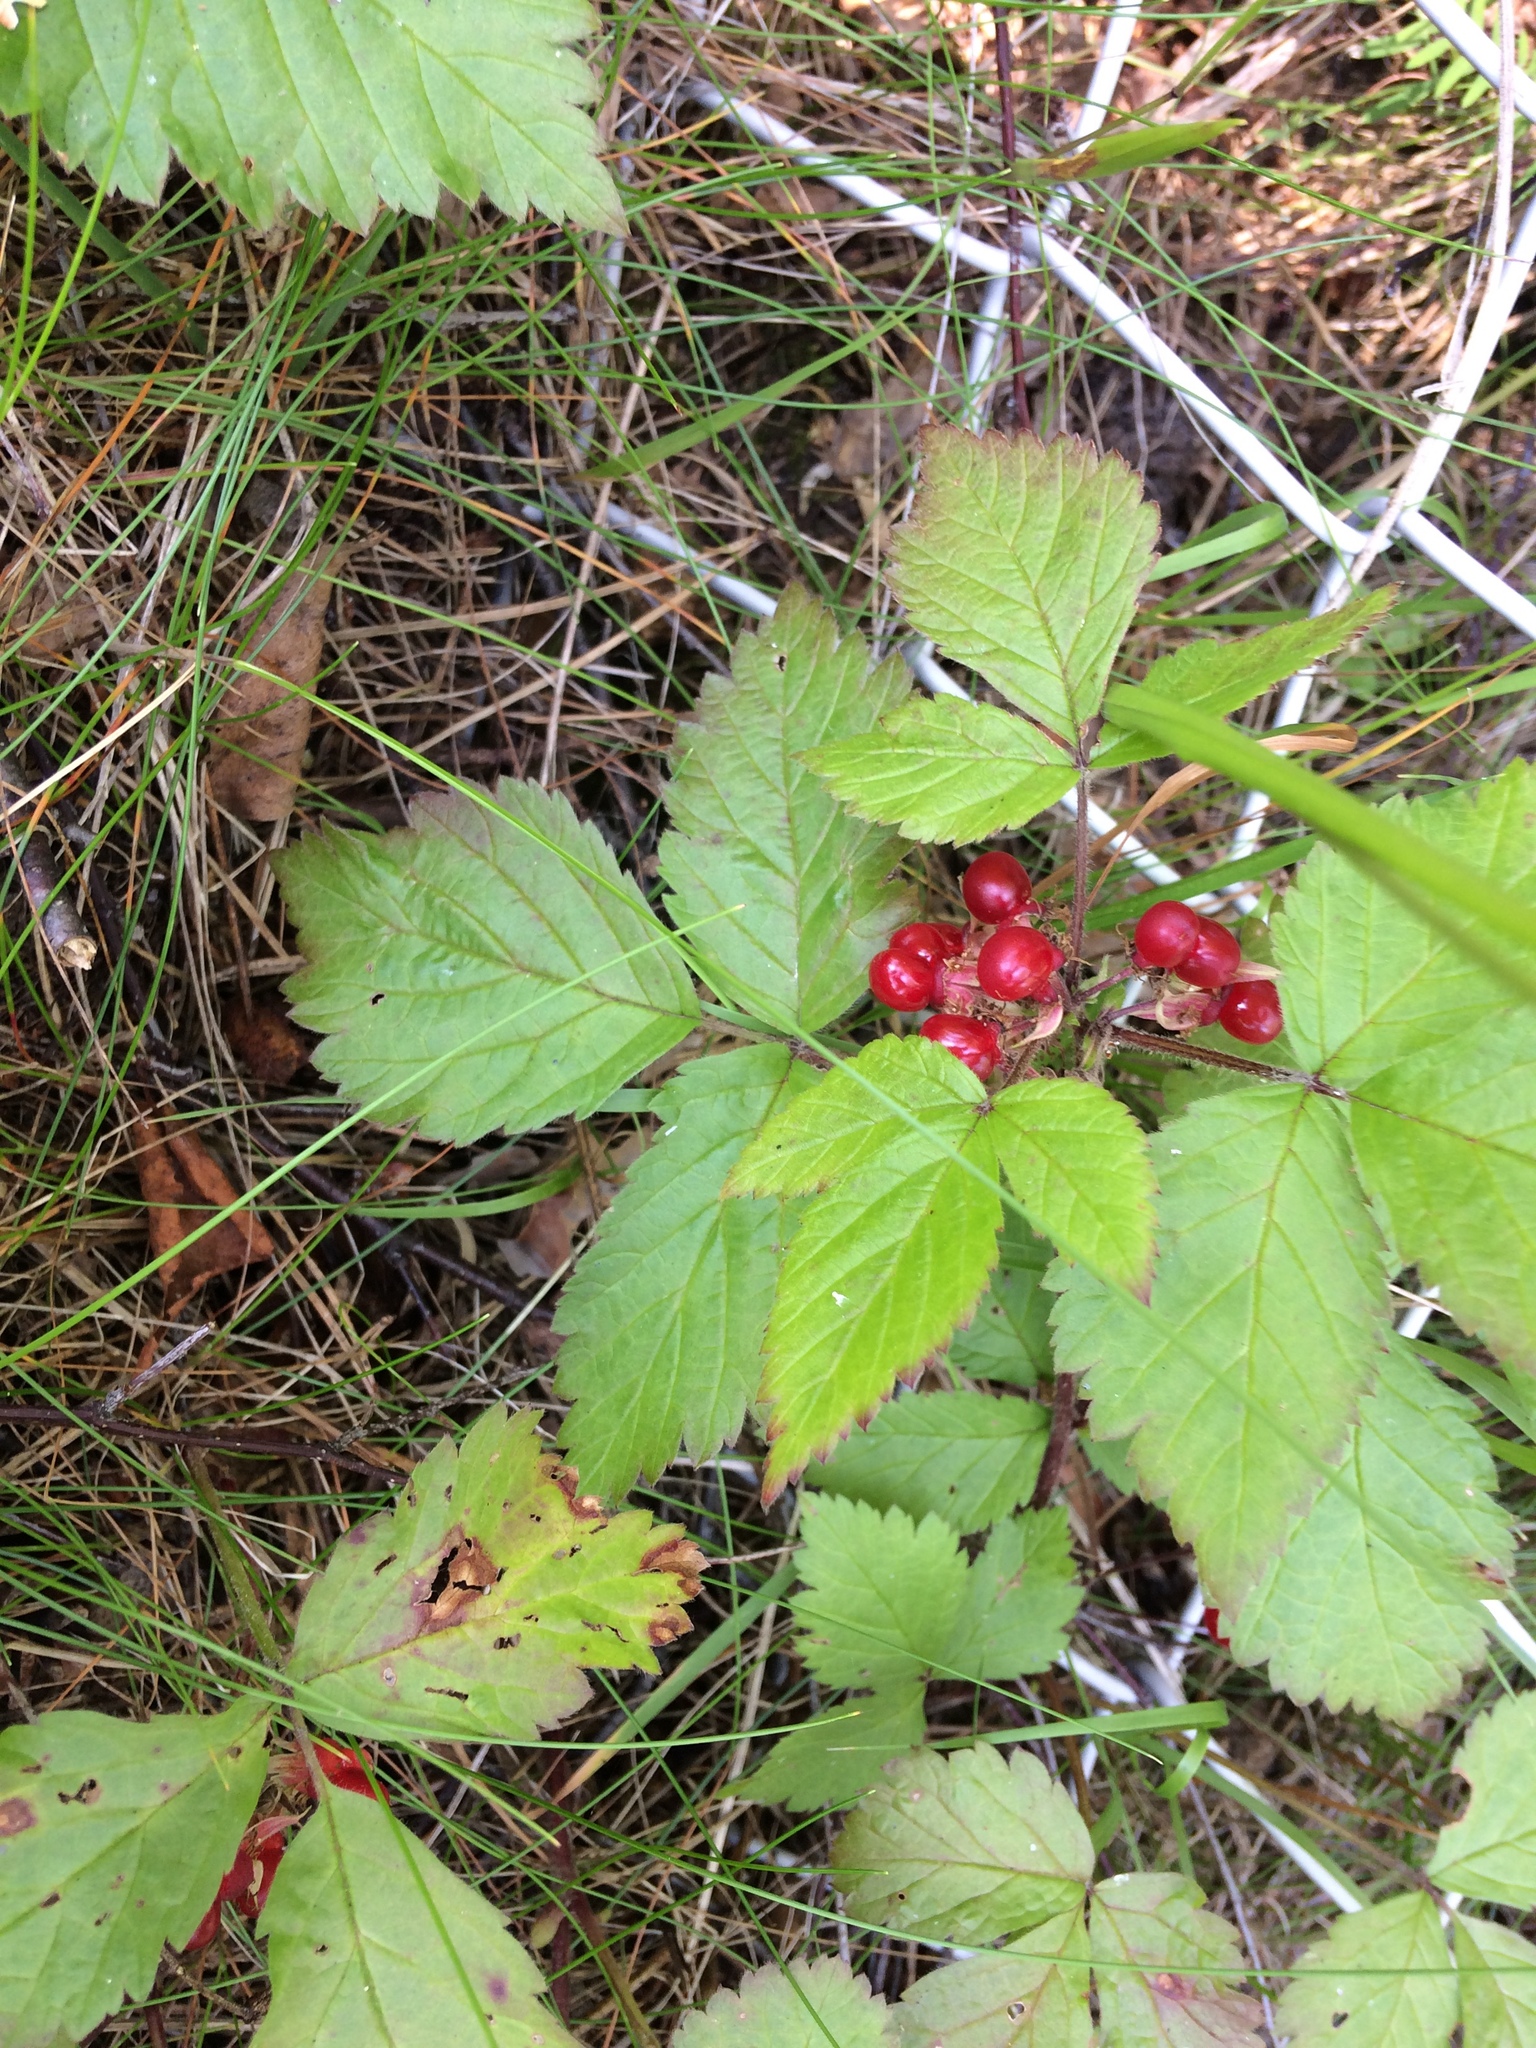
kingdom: Plantae
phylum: Tracheophyta
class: Magnoliopsida
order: Rosales
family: Rosaceae
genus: Rubus
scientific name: Rubus saxatilis
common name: Stone bramble
